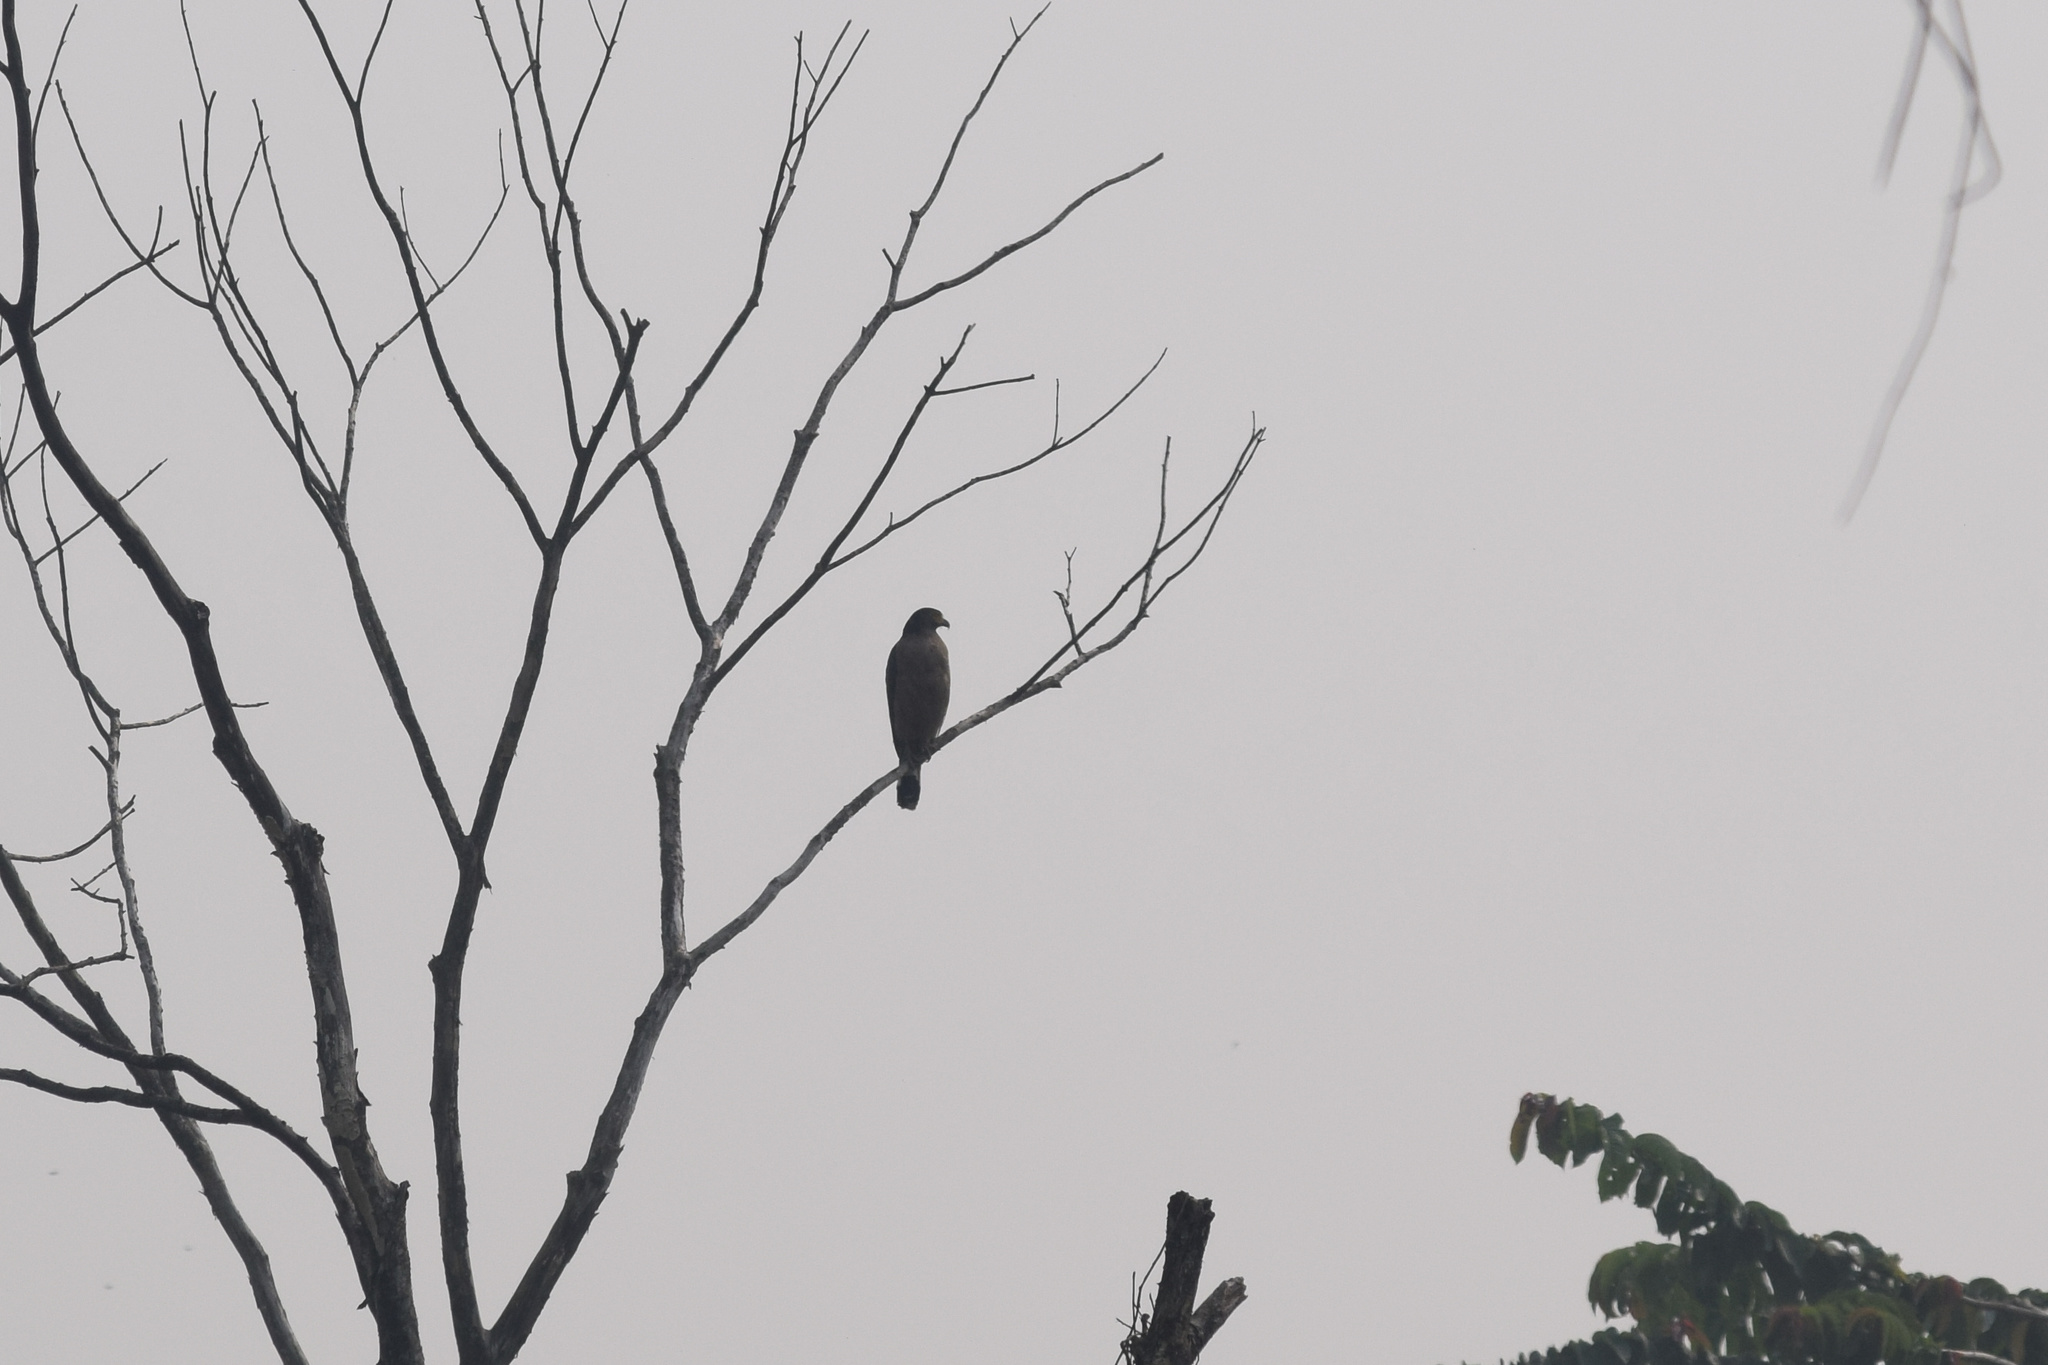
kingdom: Animalia
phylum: Chordata
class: Aves
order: Accipitriformes
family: Accipitridae
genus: Spilornis
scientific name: Spilornis cheela
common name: Crested serpent eagle
